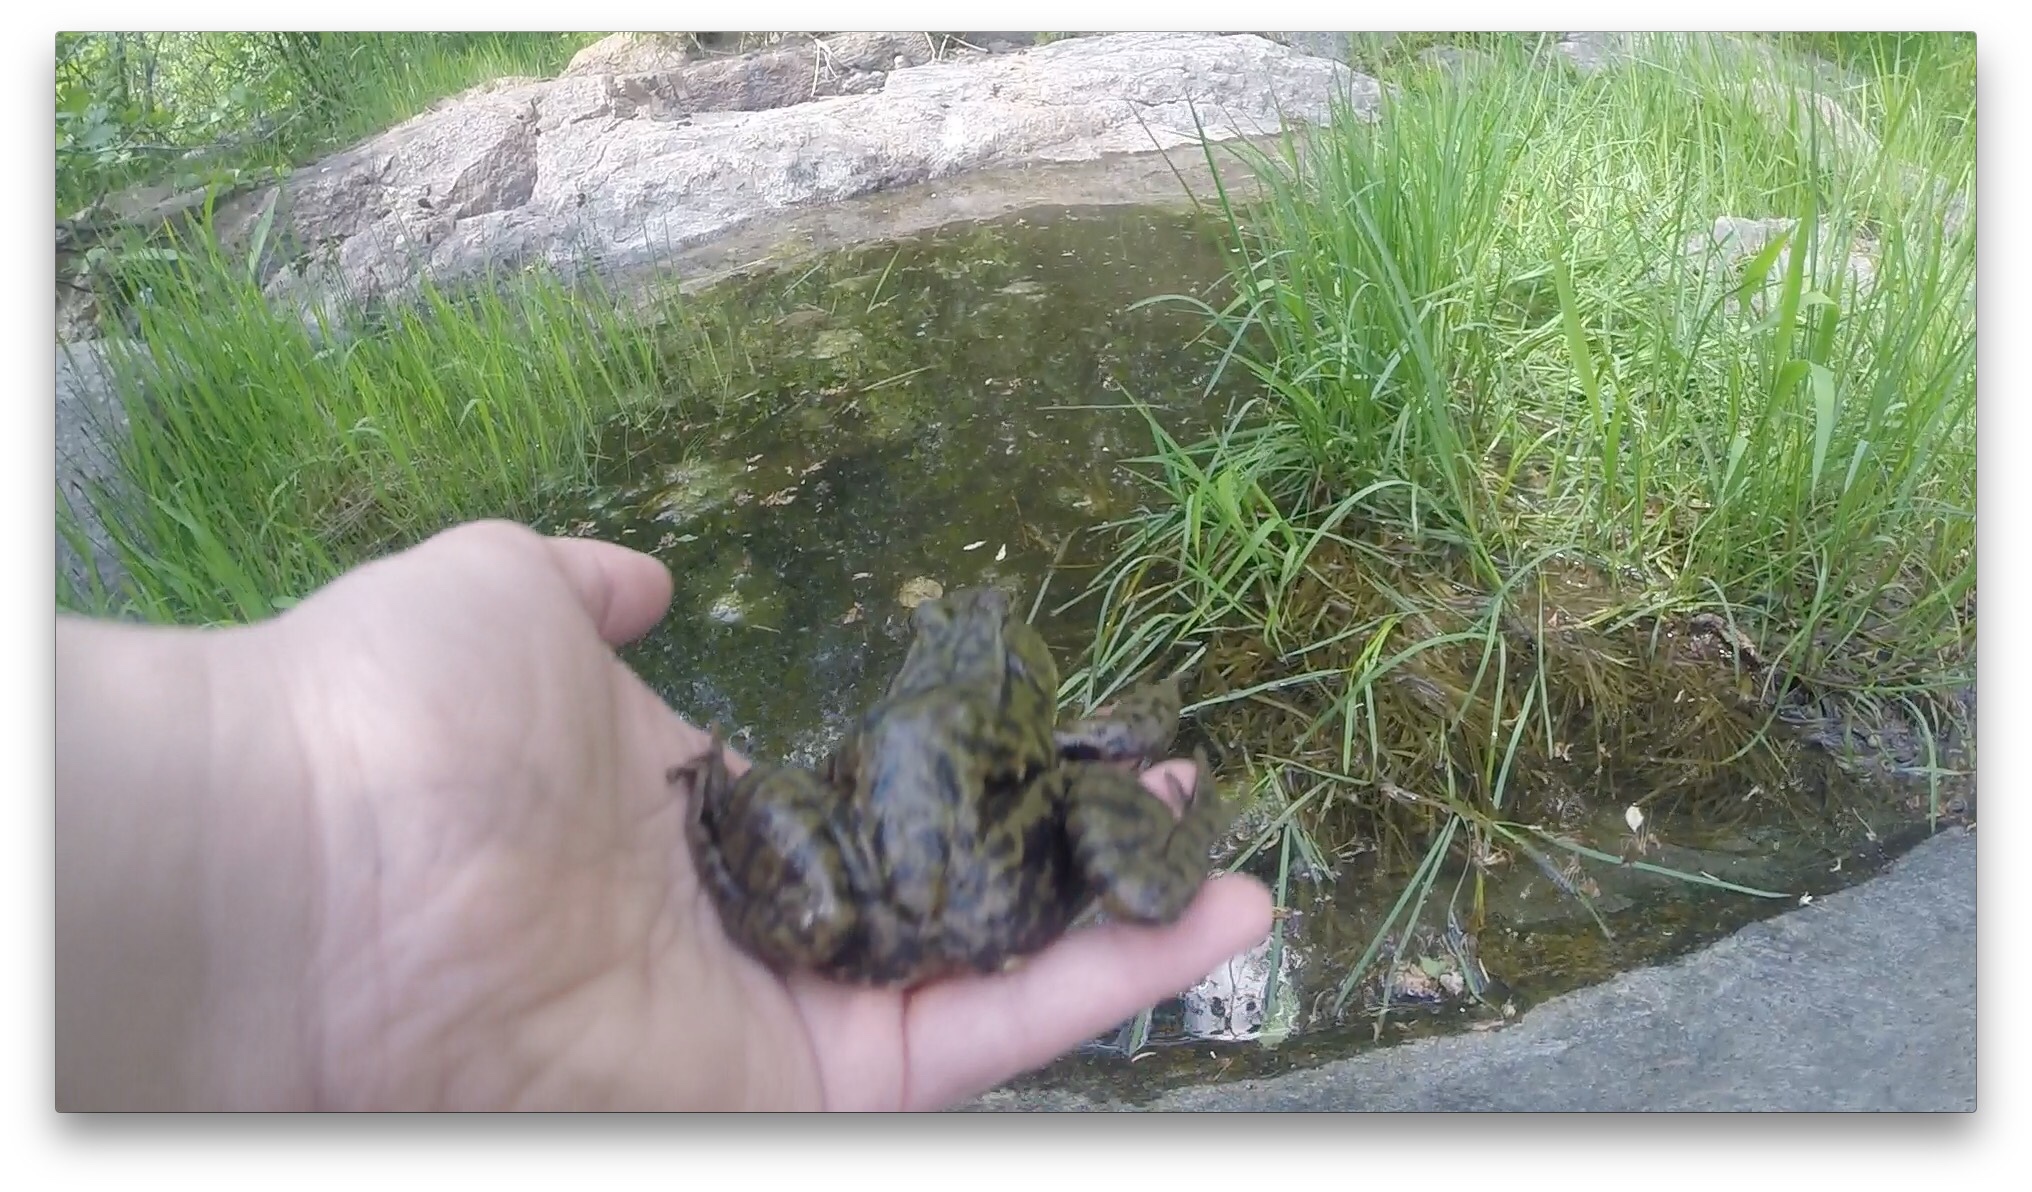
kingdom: Animalia
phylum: Chordata
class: Amphibia
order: Anura
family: Ranidae
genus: Lithobates
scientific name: Lithobates clamitans
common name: Green frog
